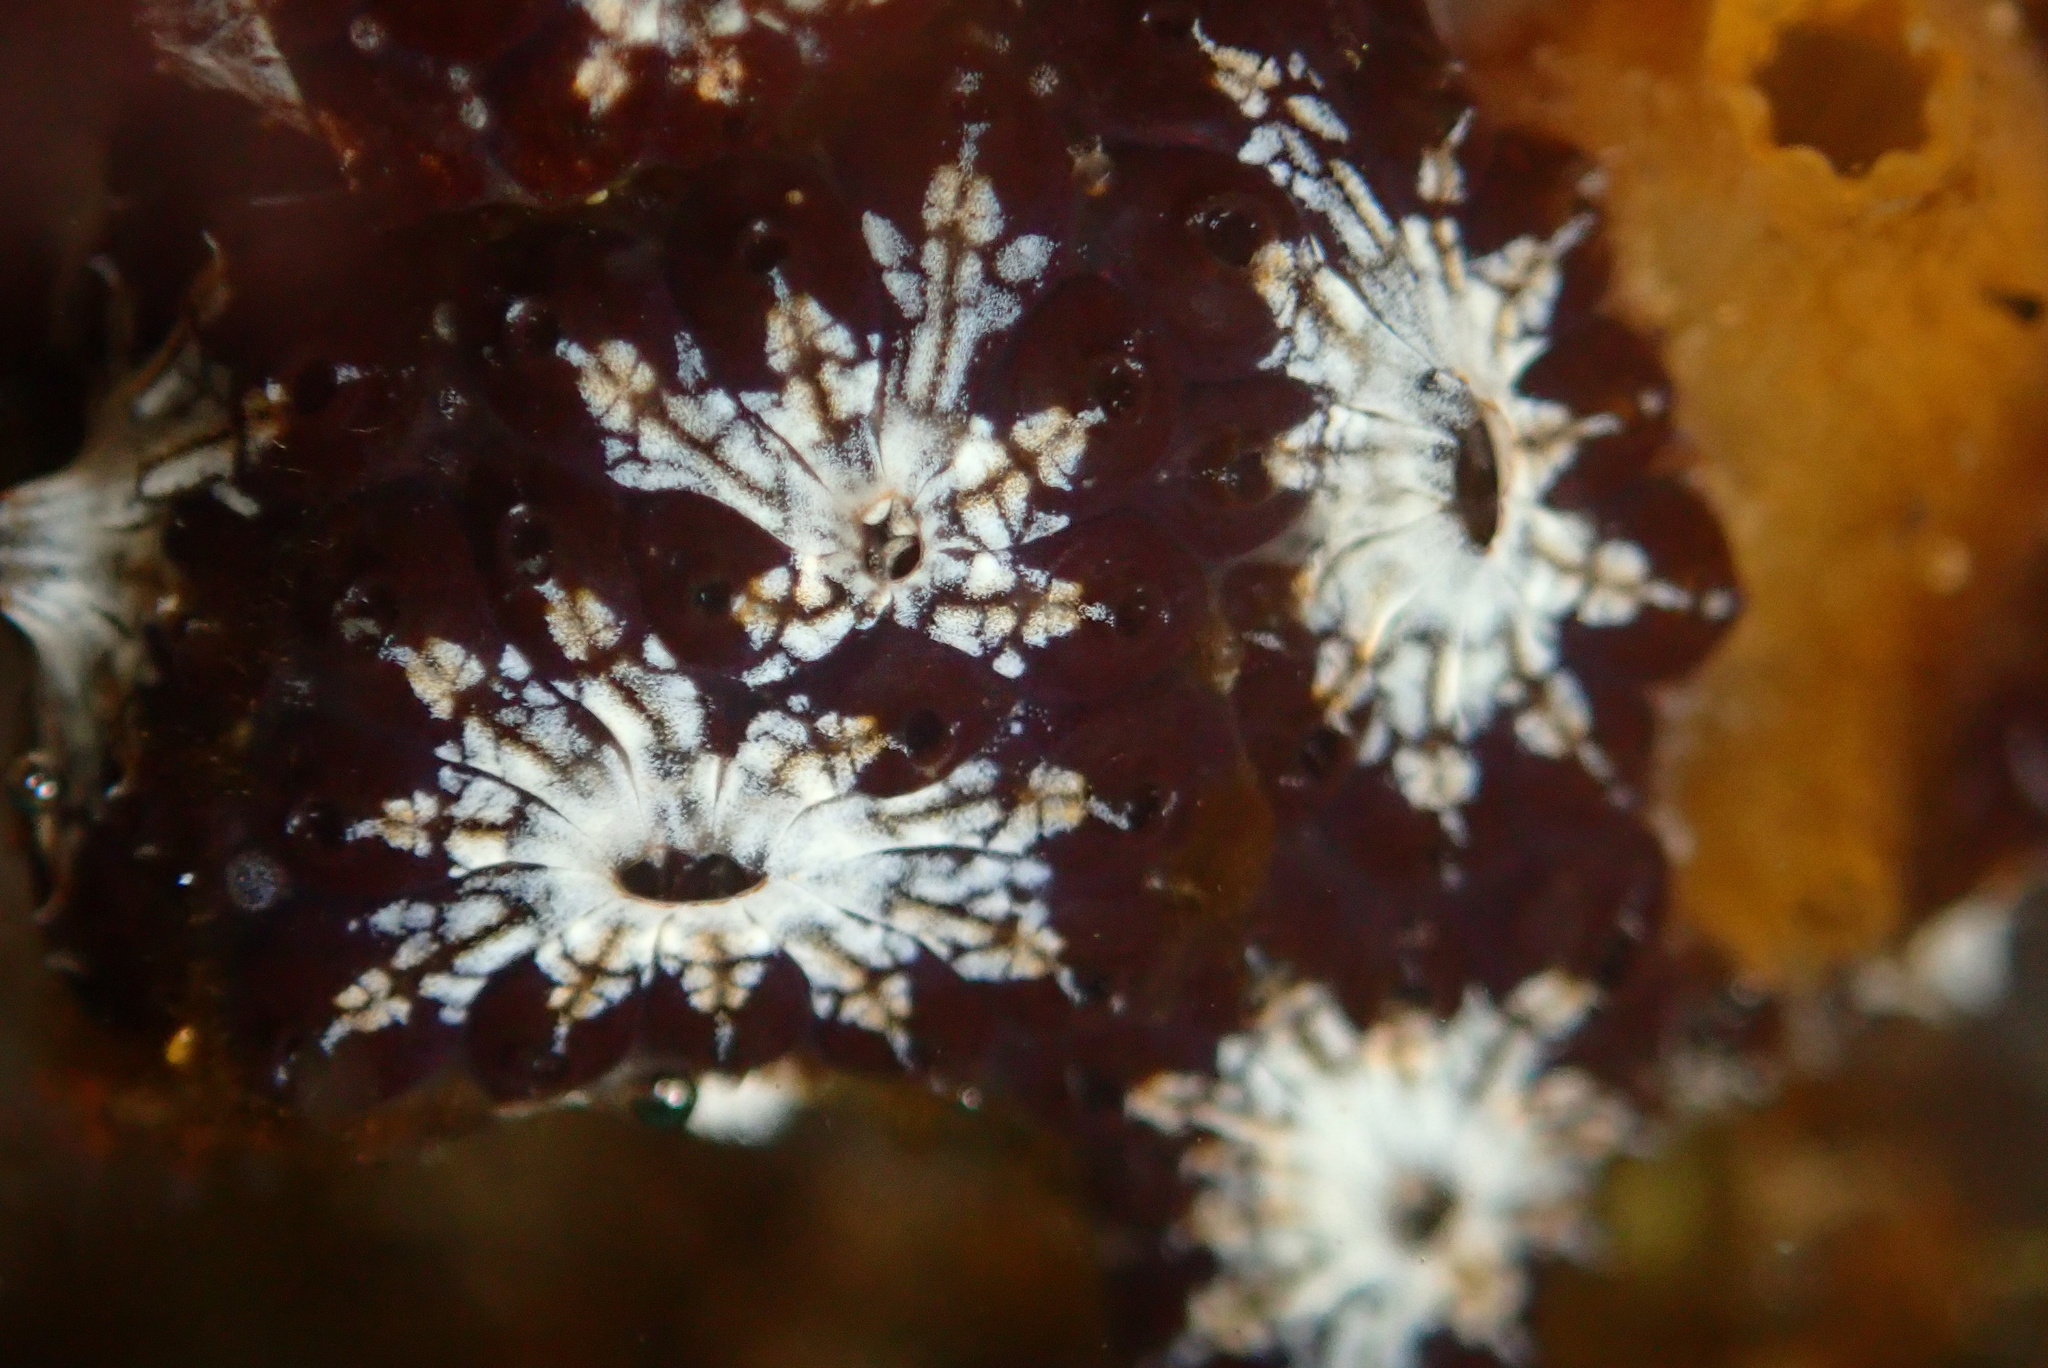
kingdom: Animalia
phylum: Chordata
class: Ascidiacea
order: Stolidobranchia
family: Styelidae
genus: Botryllus
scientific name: Botryllus schlosseri
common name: Golden star tunicate
